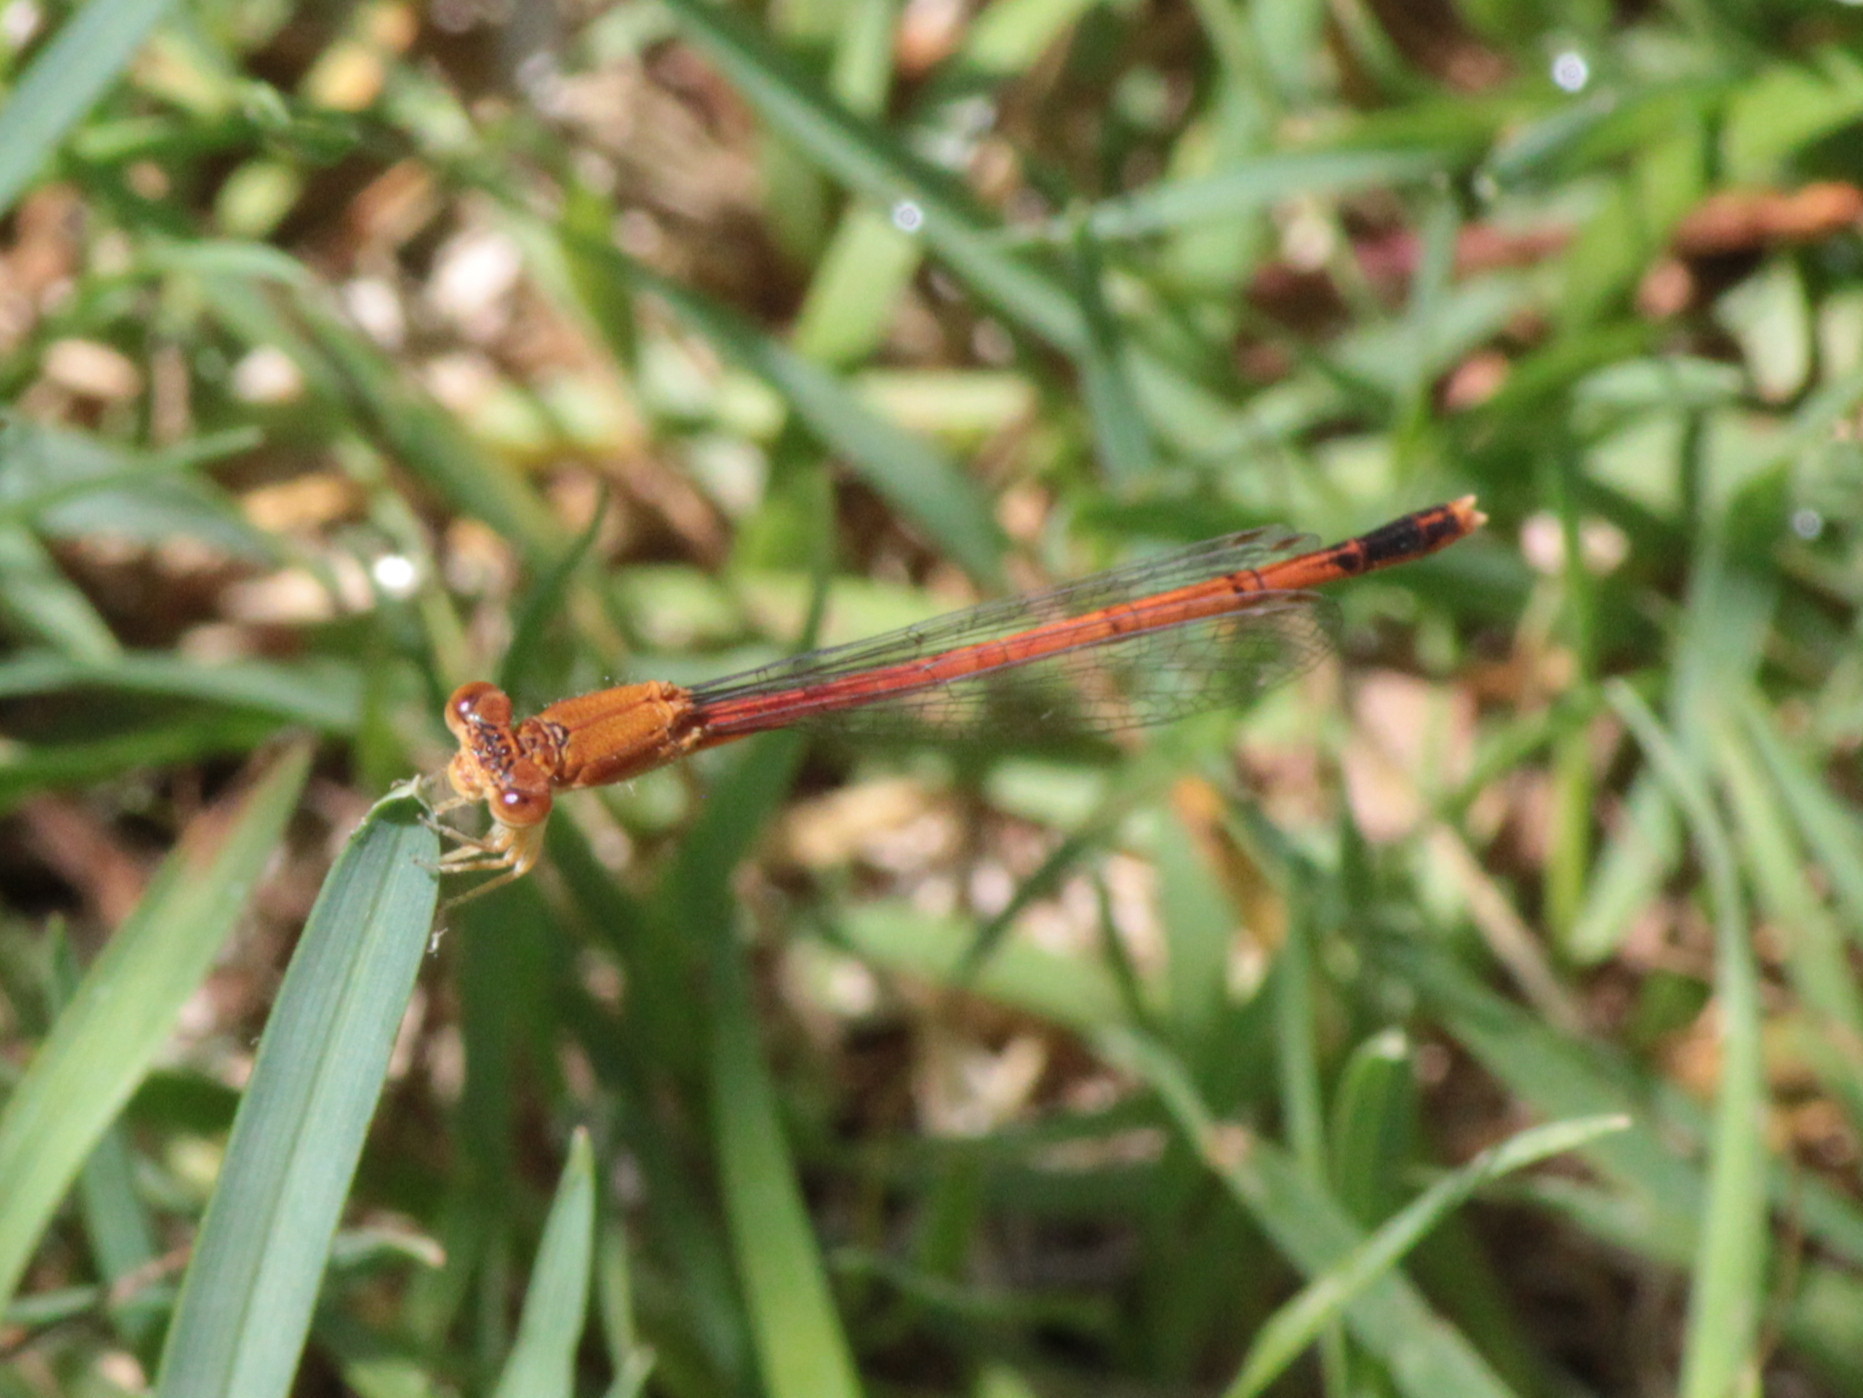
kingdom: Animalia
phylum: Arthropoda
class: Insecta
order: Odonata
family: Coenagrionidae
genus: Amphiagrion
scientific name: Amphiagrion saucium
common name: Eastern red damsel
